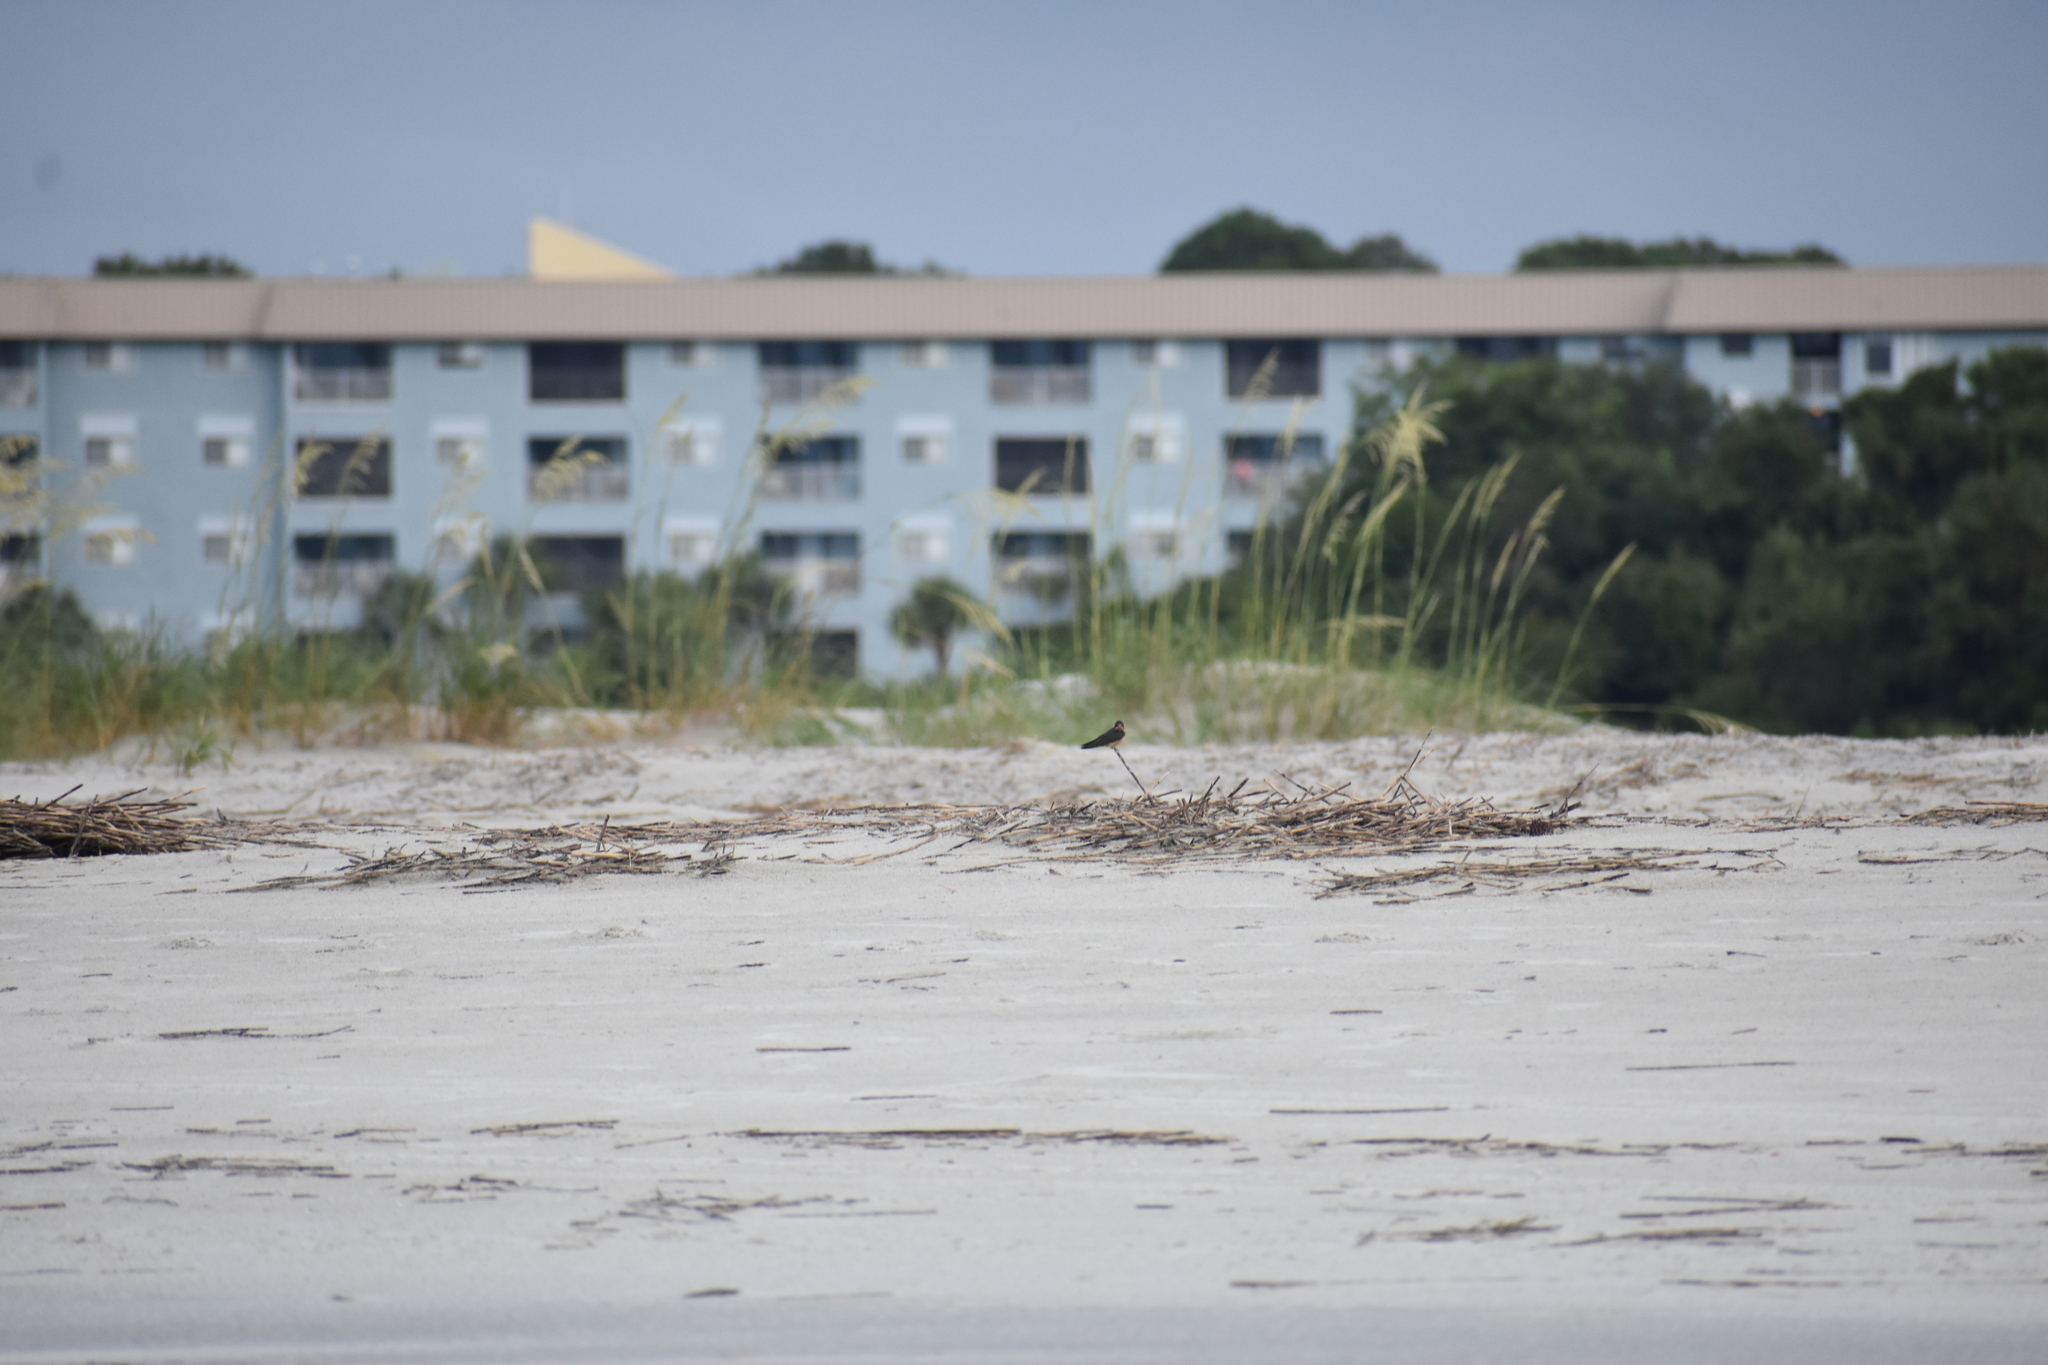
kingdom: Animalia
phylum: Chordata
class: Aves
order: Passeriformes
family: Hirundinidae
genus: Hirundo
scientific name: Hirundo rustica
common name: Barn swallow
